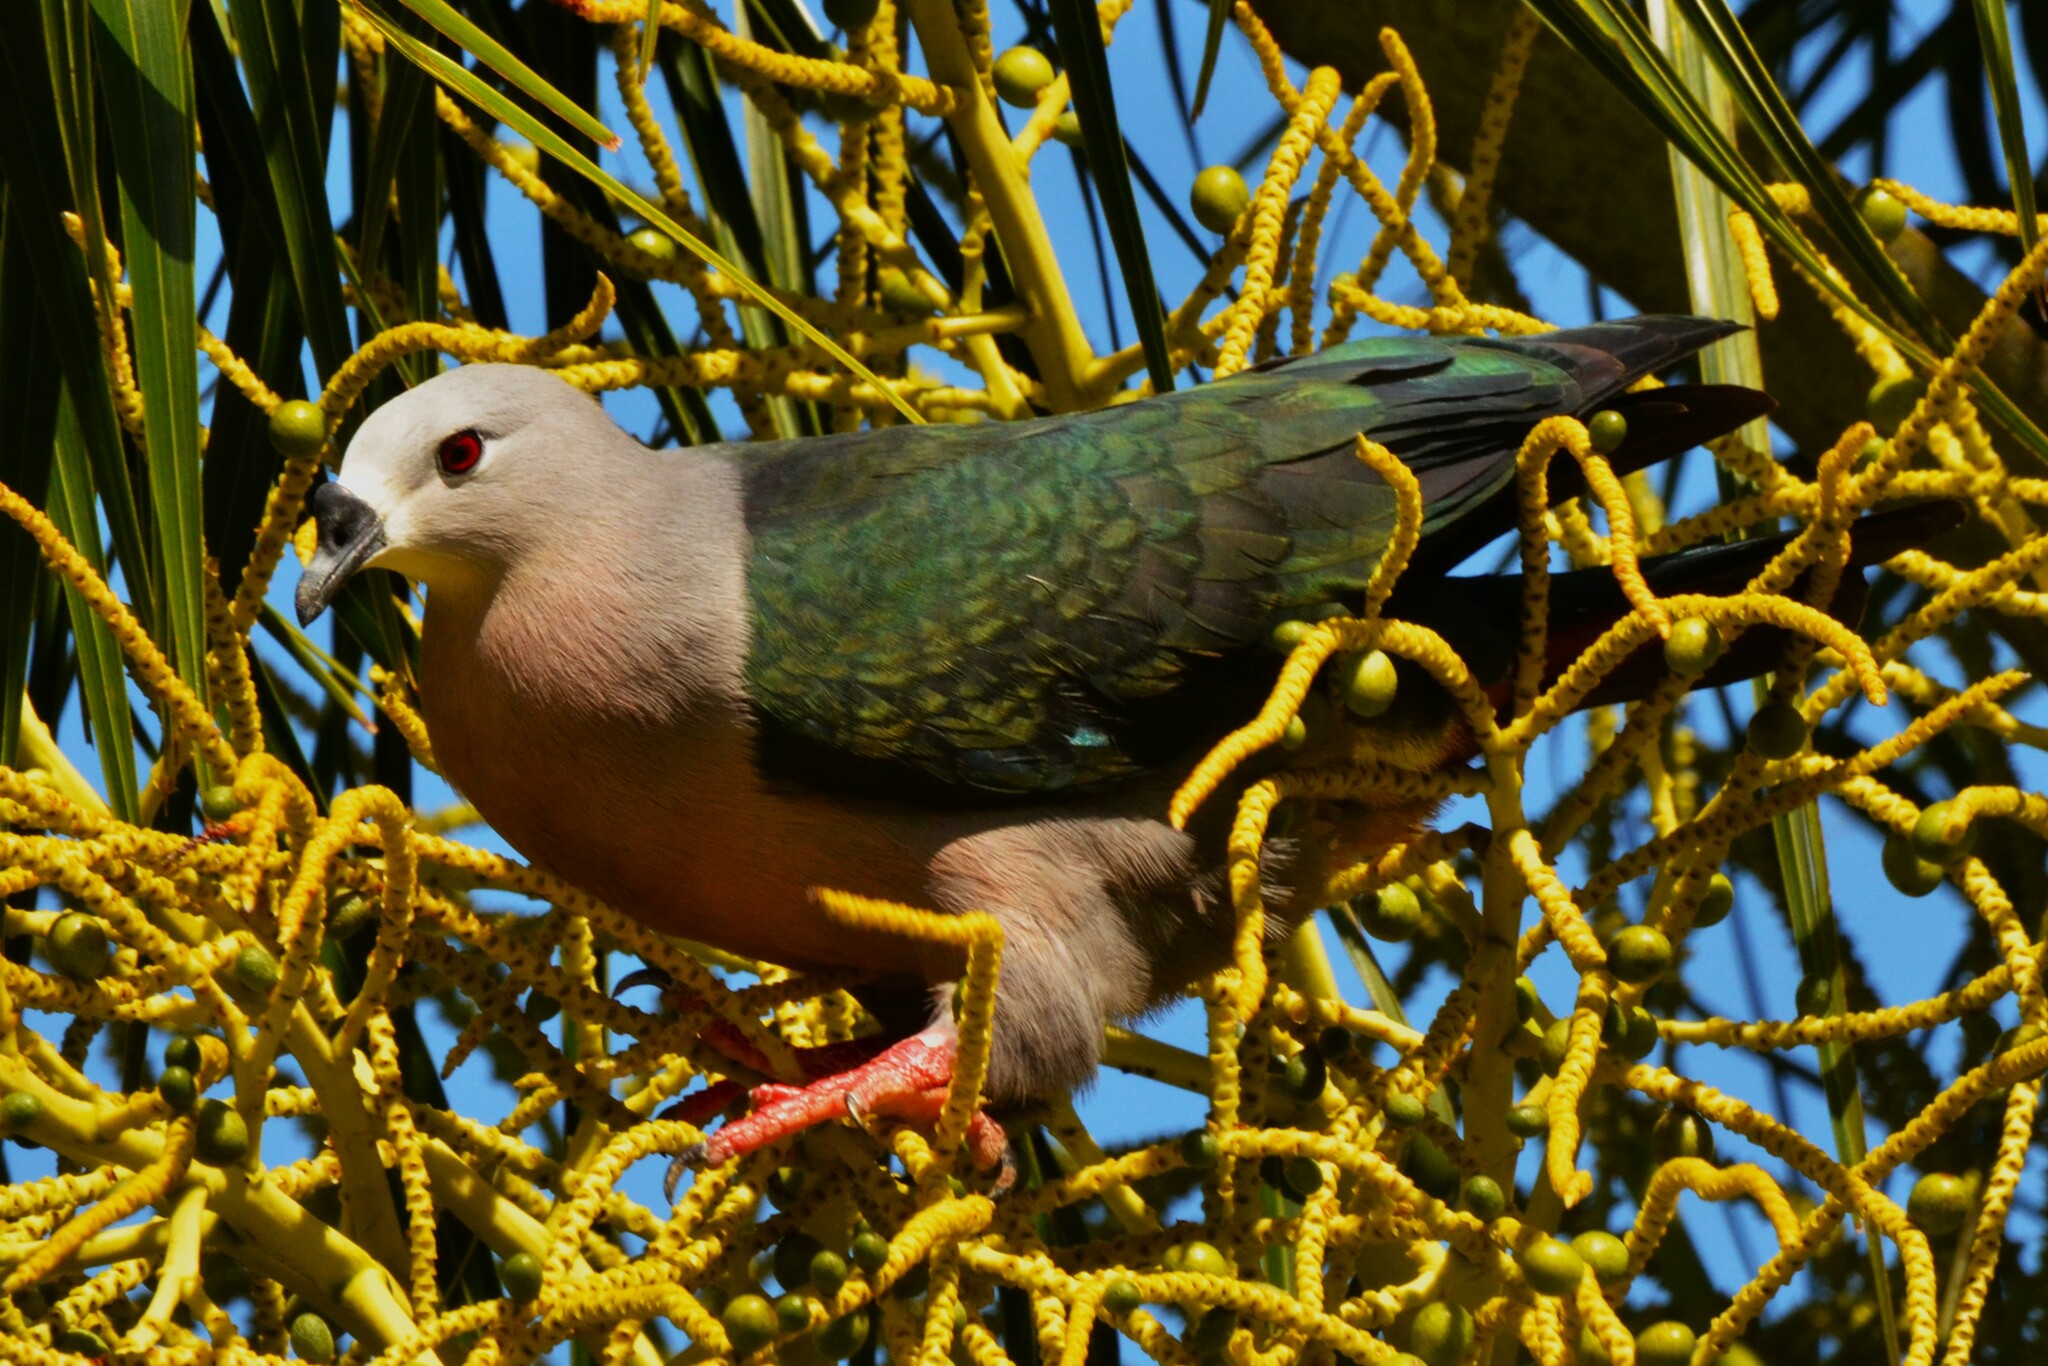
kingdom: Animalia
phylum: Chordata
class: Aves
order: Columbiformes
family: Columbidae
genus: Ducula
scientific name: Ducula pacifica
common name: Pacific imperial-pigeon
